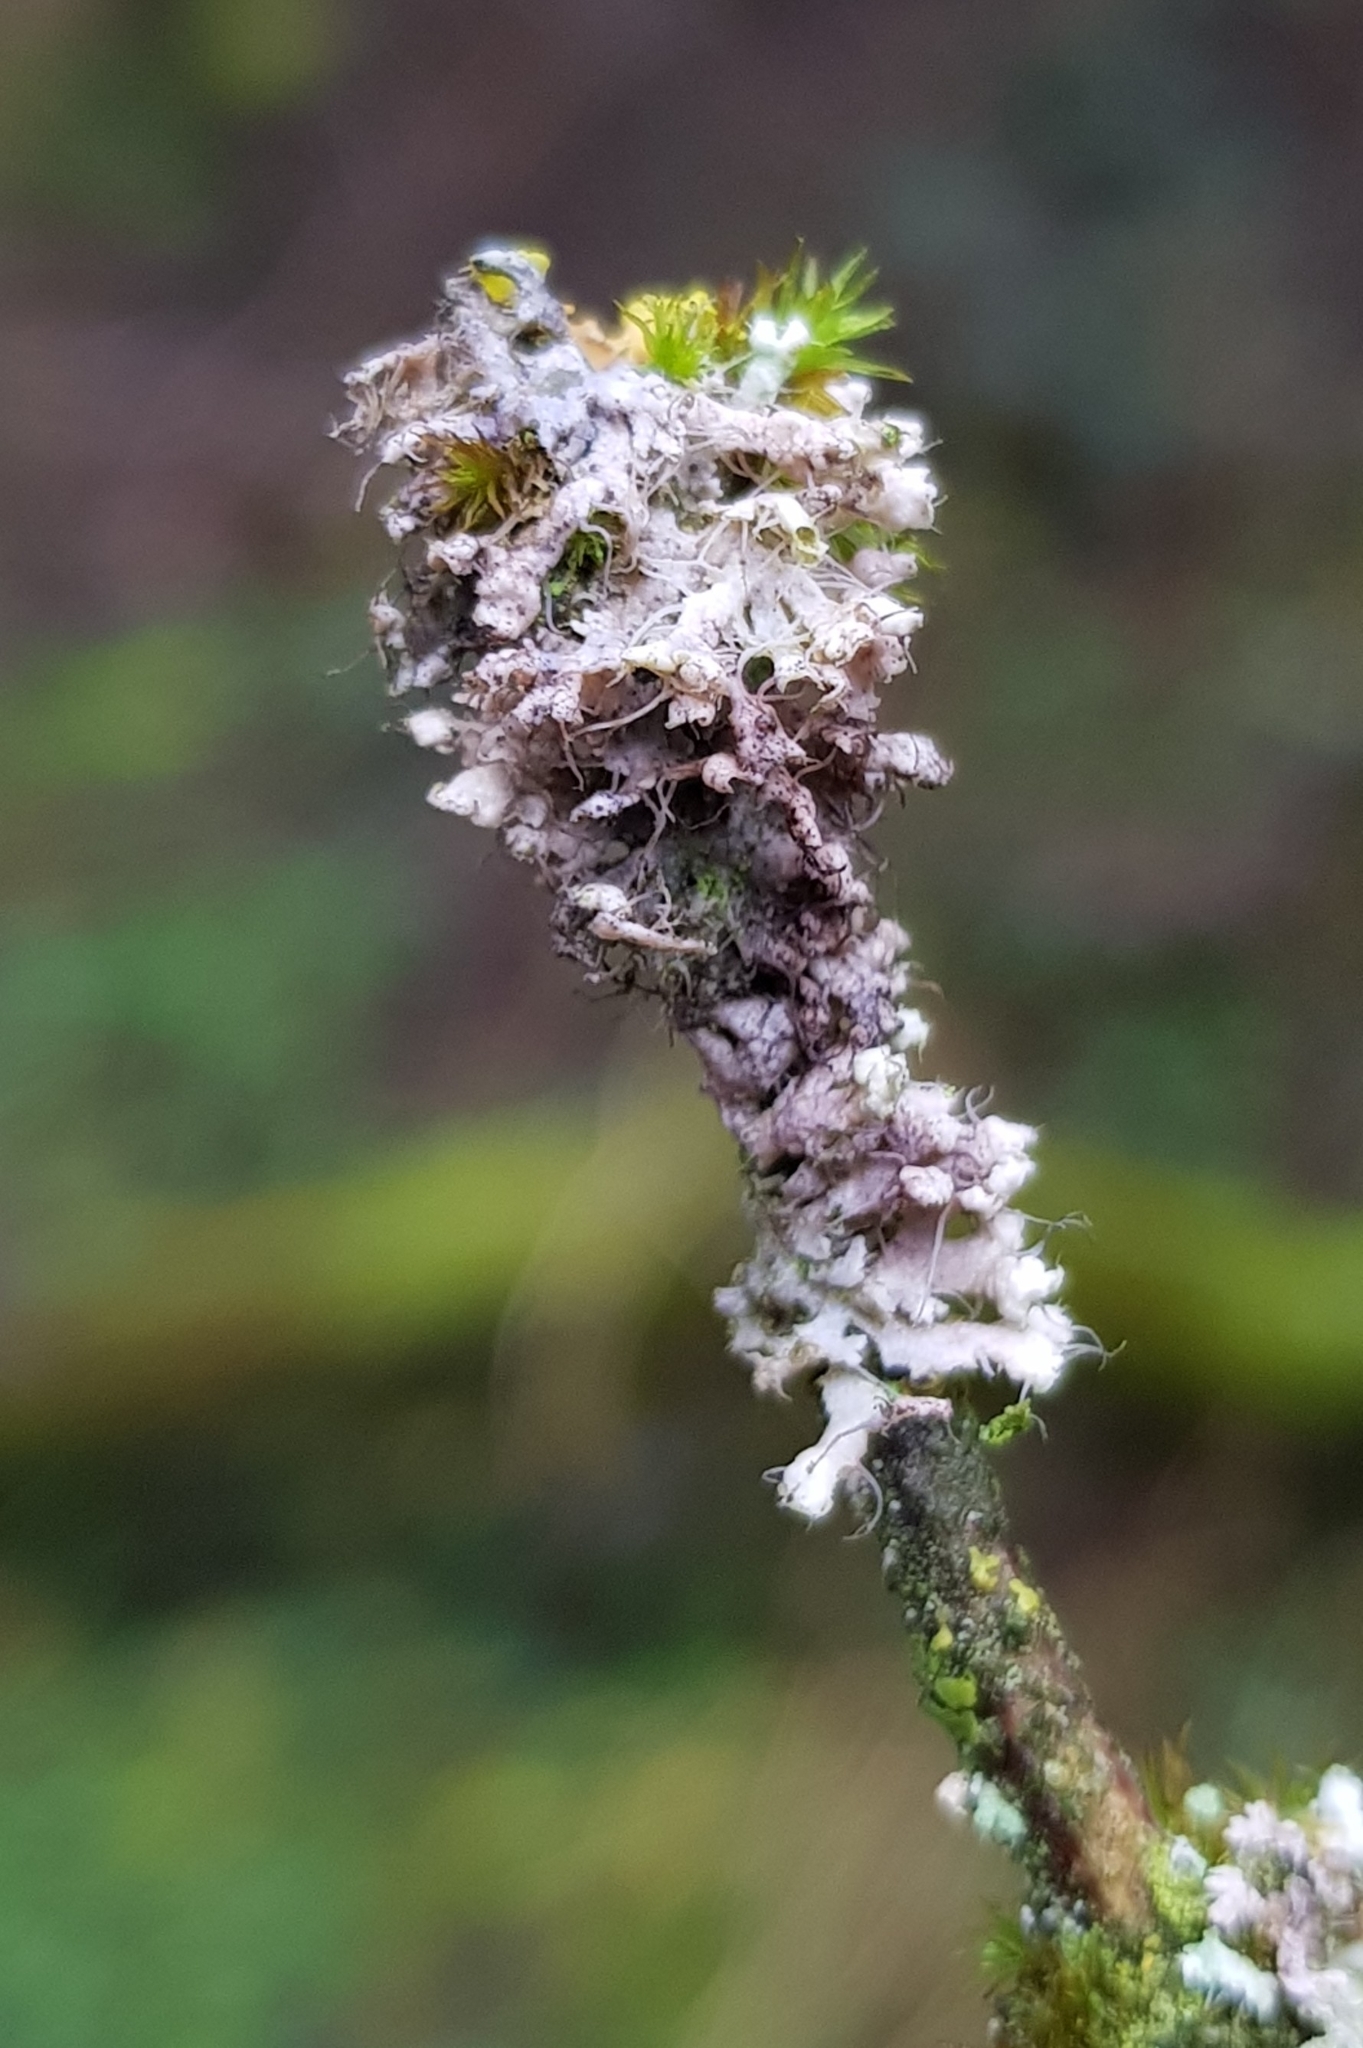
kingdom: Fungi
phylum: Ascomycota
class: Lecanoromycetes
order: Caliciales
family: Physciaceae
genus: Physcia
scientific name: Physcia adscendens
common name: Hooded rosette lichen
